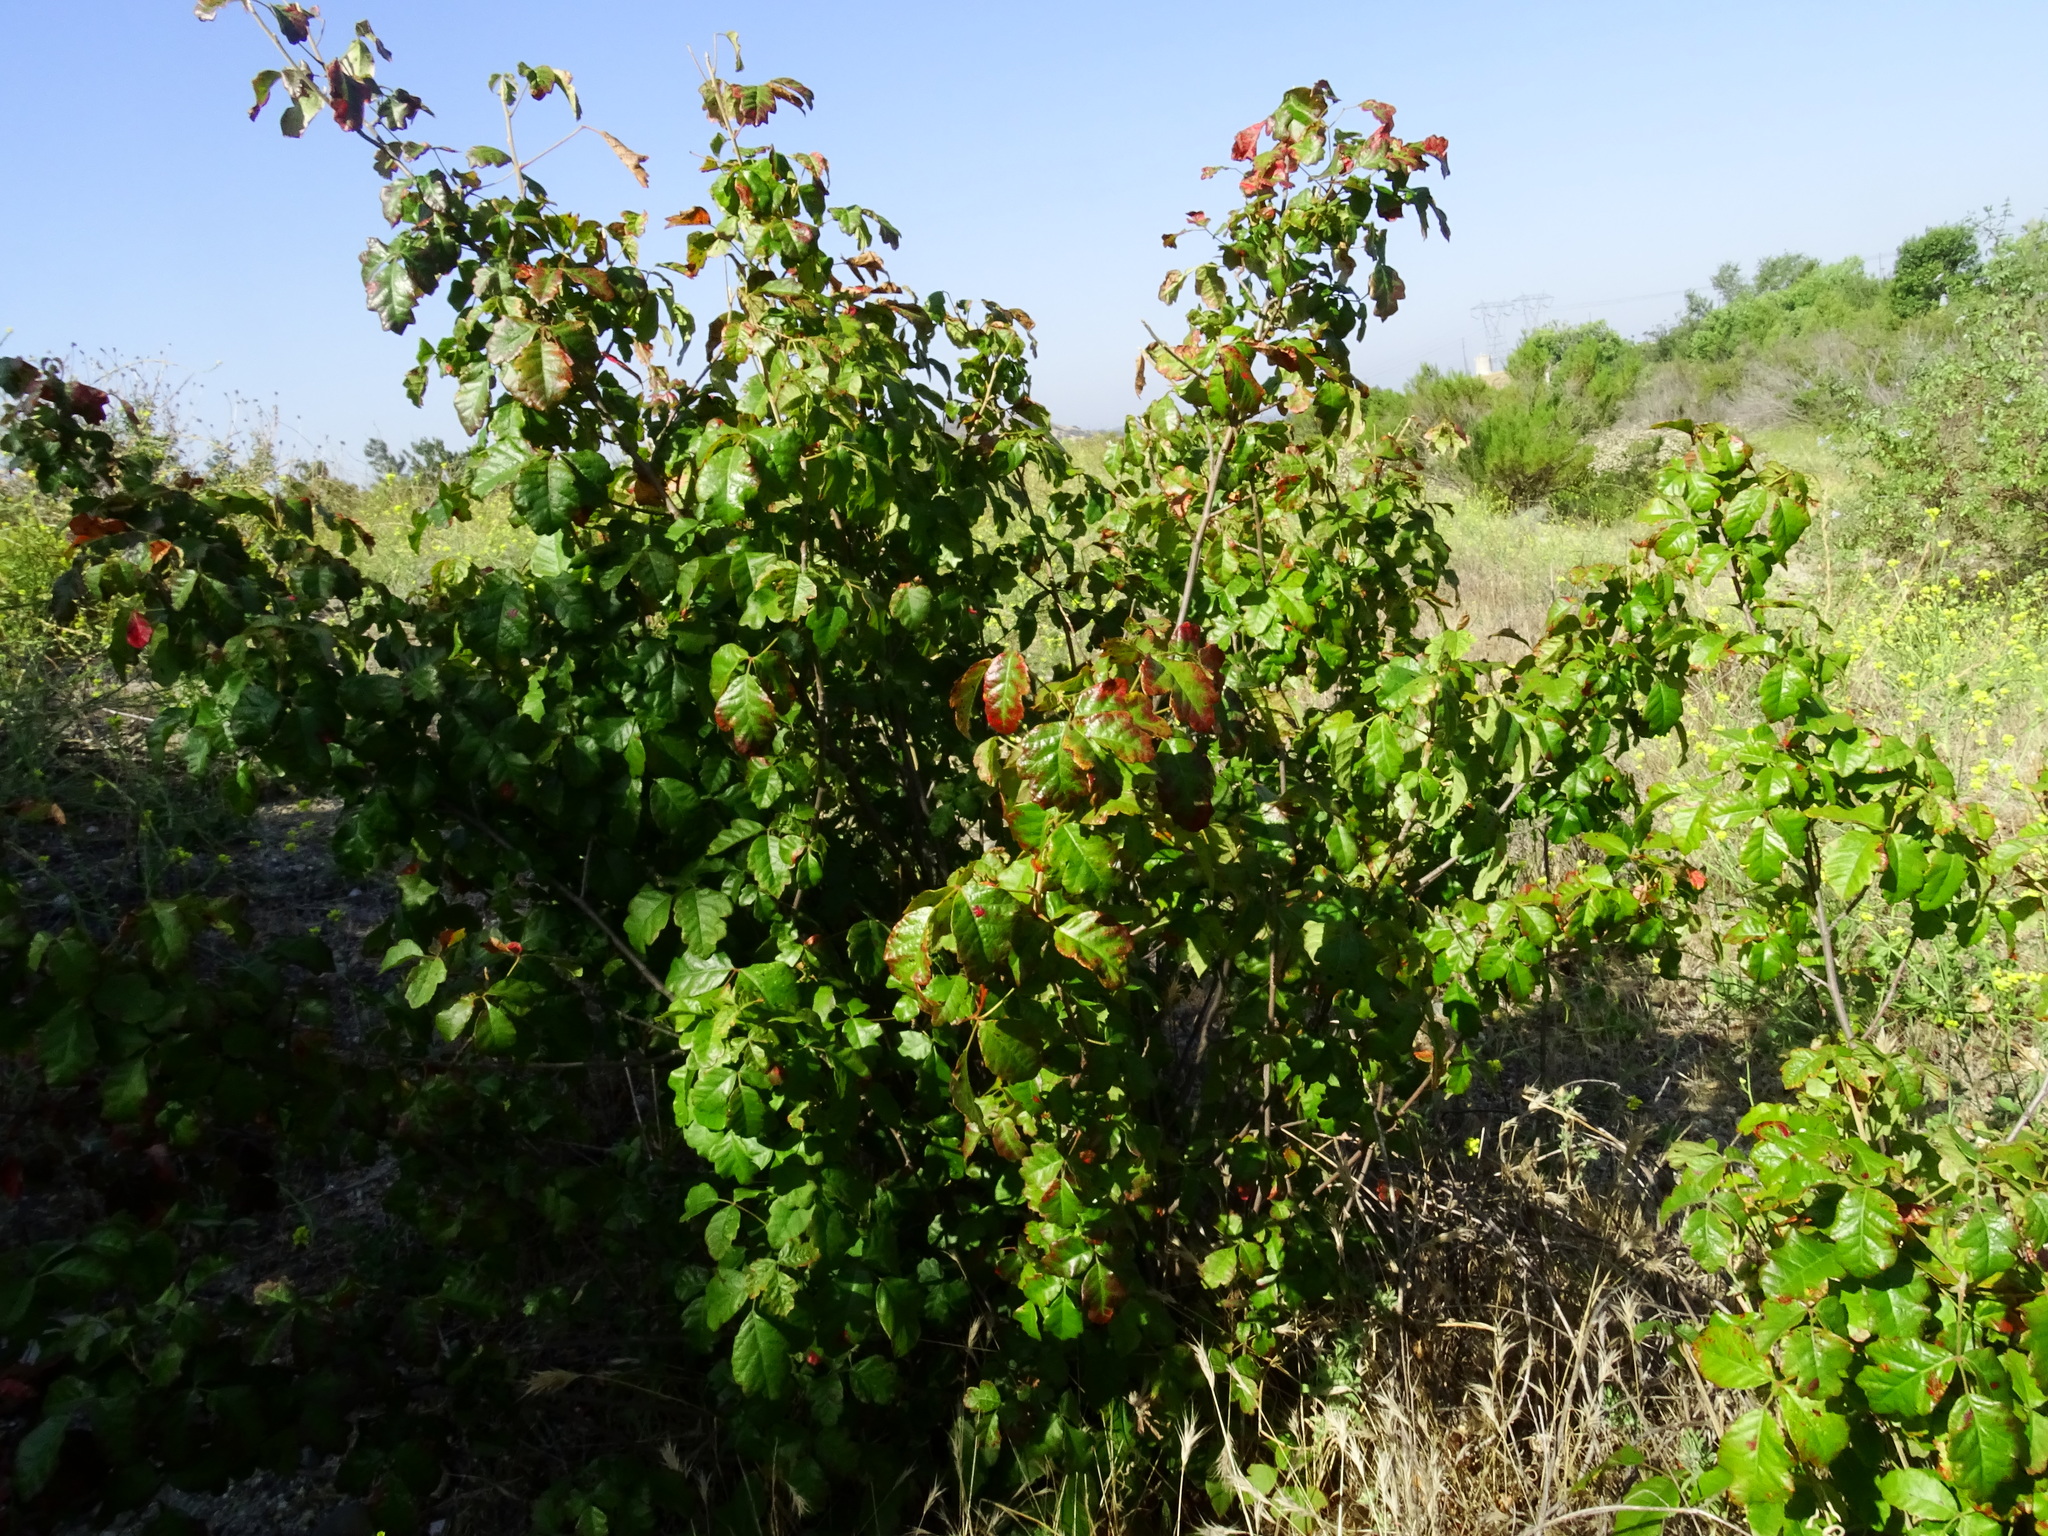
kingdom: Plantae
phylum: Tracheophyta
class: Magnoliopsida
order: Sapindales
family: Anacardiaceae
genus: Toxicodendron
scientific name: Toxicodendron diversilobum
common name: Pacific poison-oak
